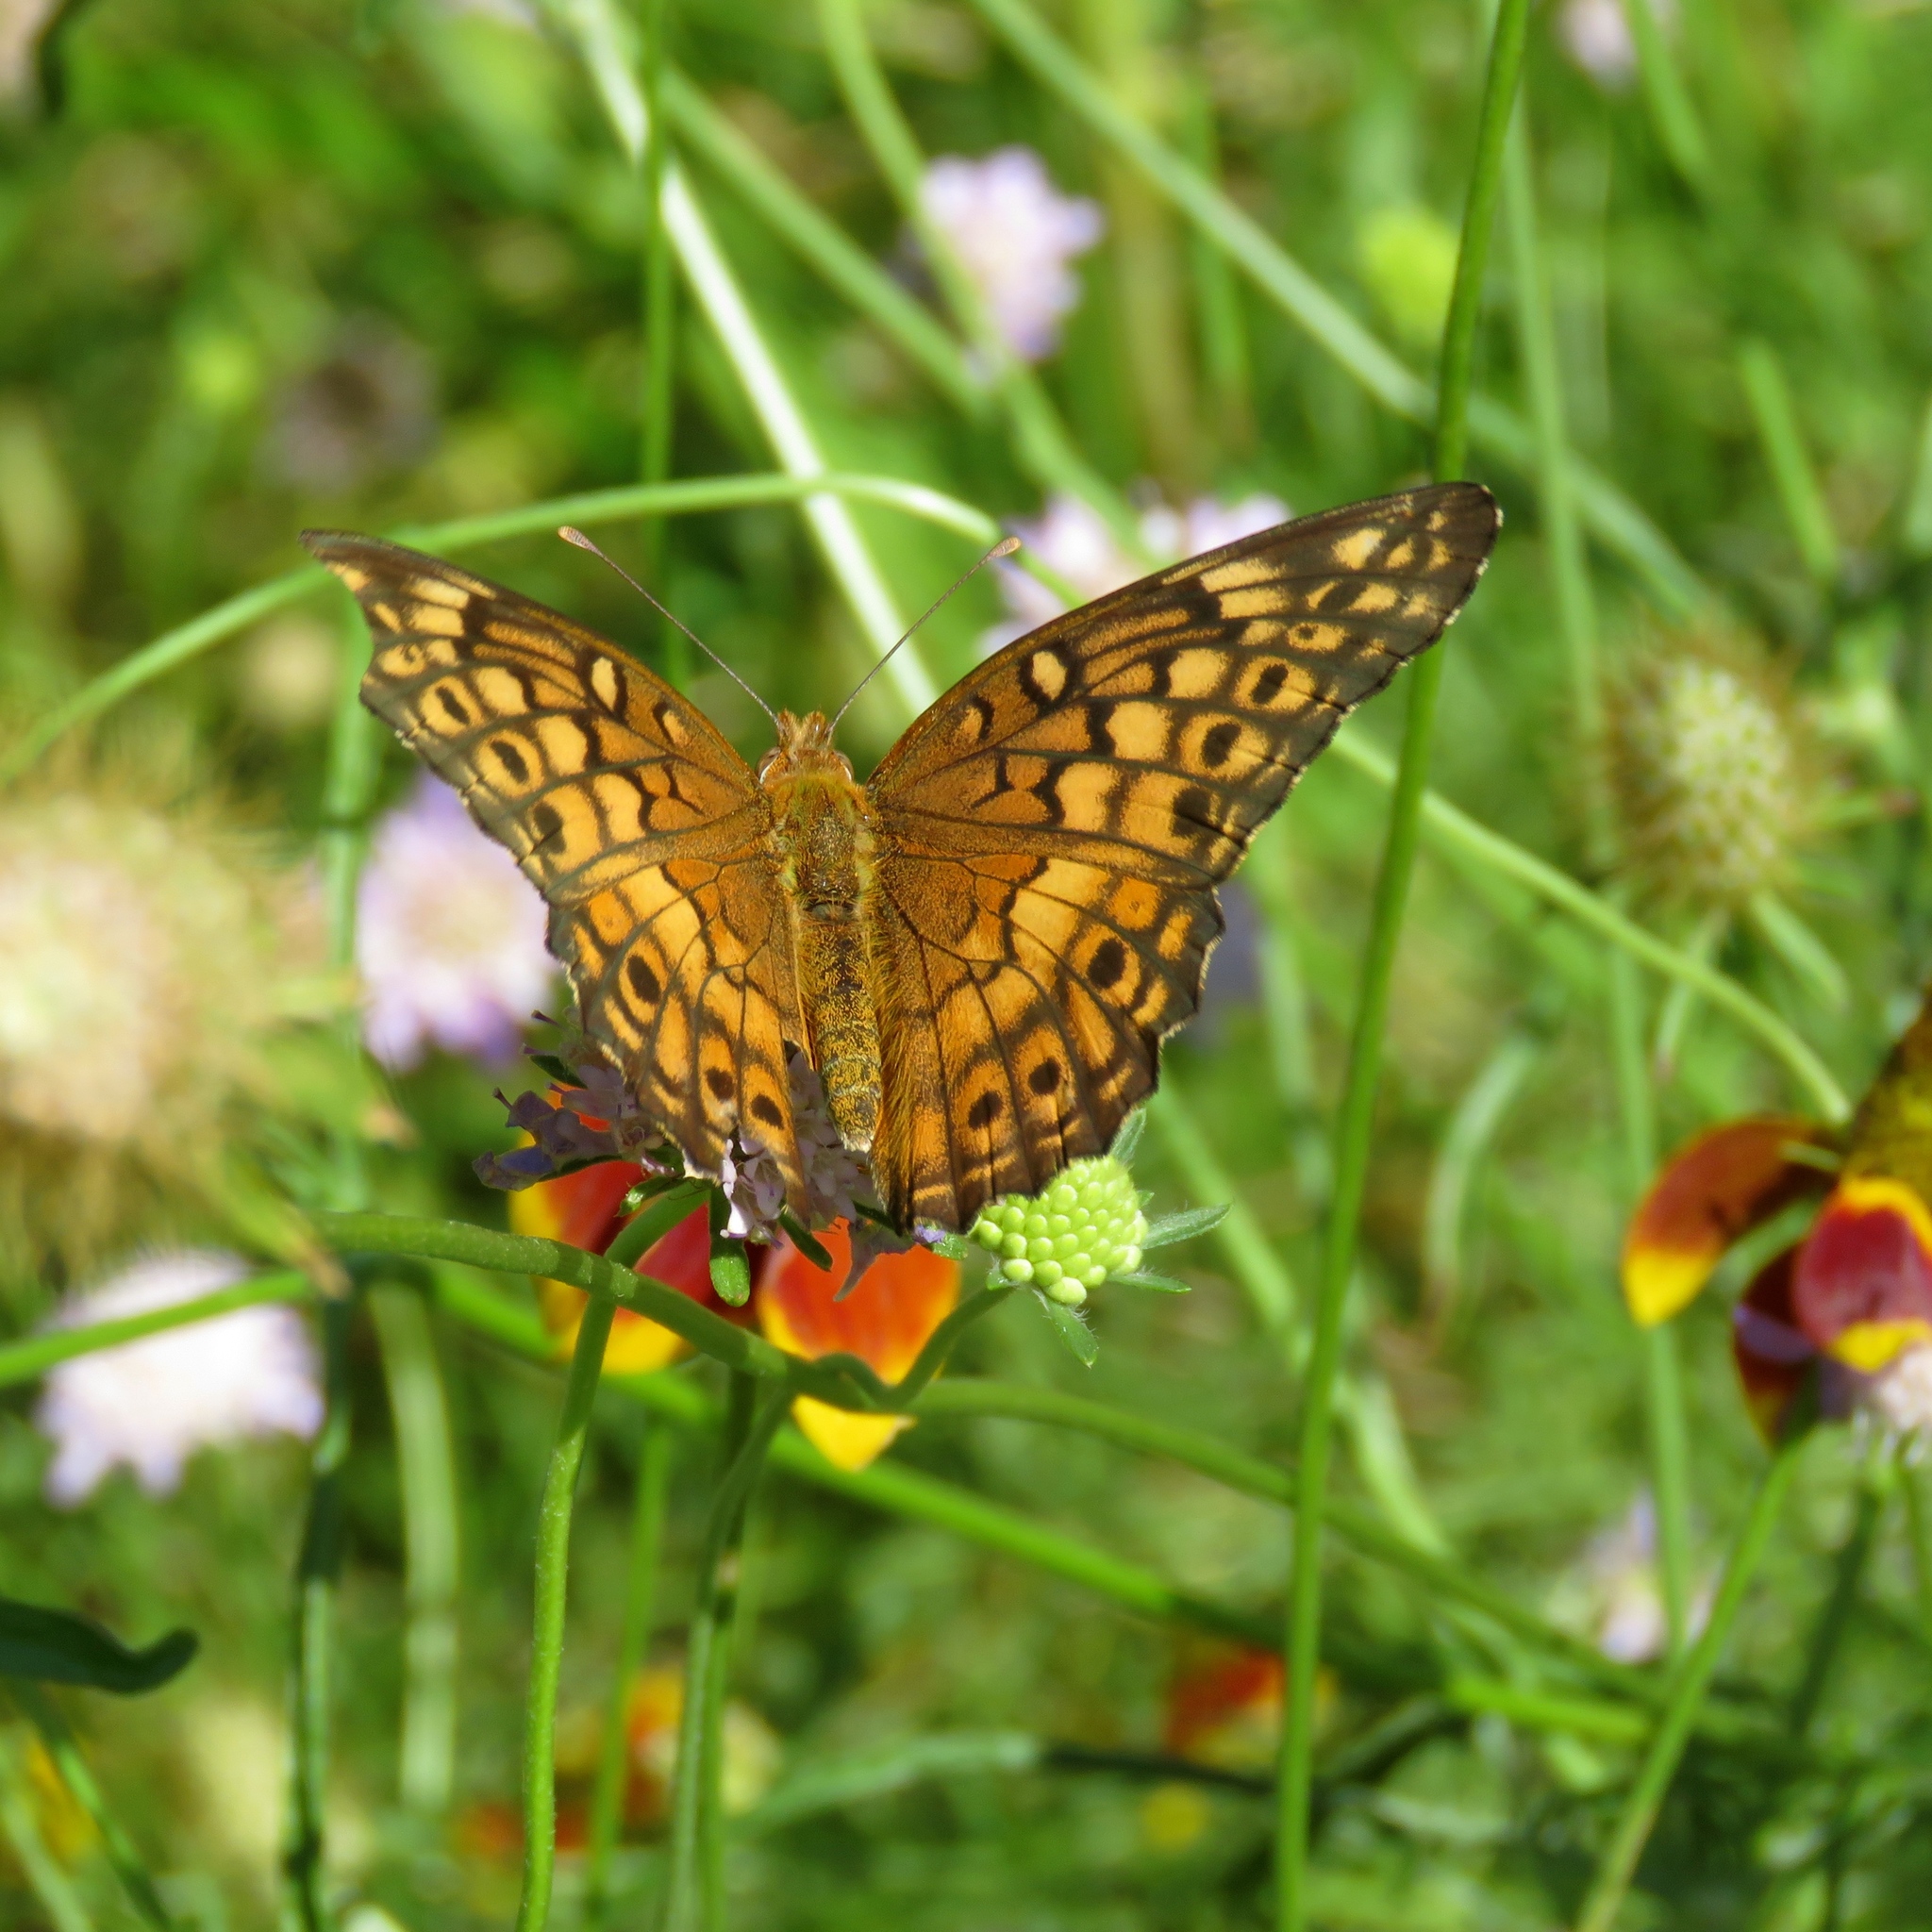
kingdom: Animalia
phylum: Arthropoda
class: Insecta
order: Lepidoptera
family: Nymphalidae
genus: Euptoieta
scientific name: Euptoieta claudia
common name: Variegated fritillary
